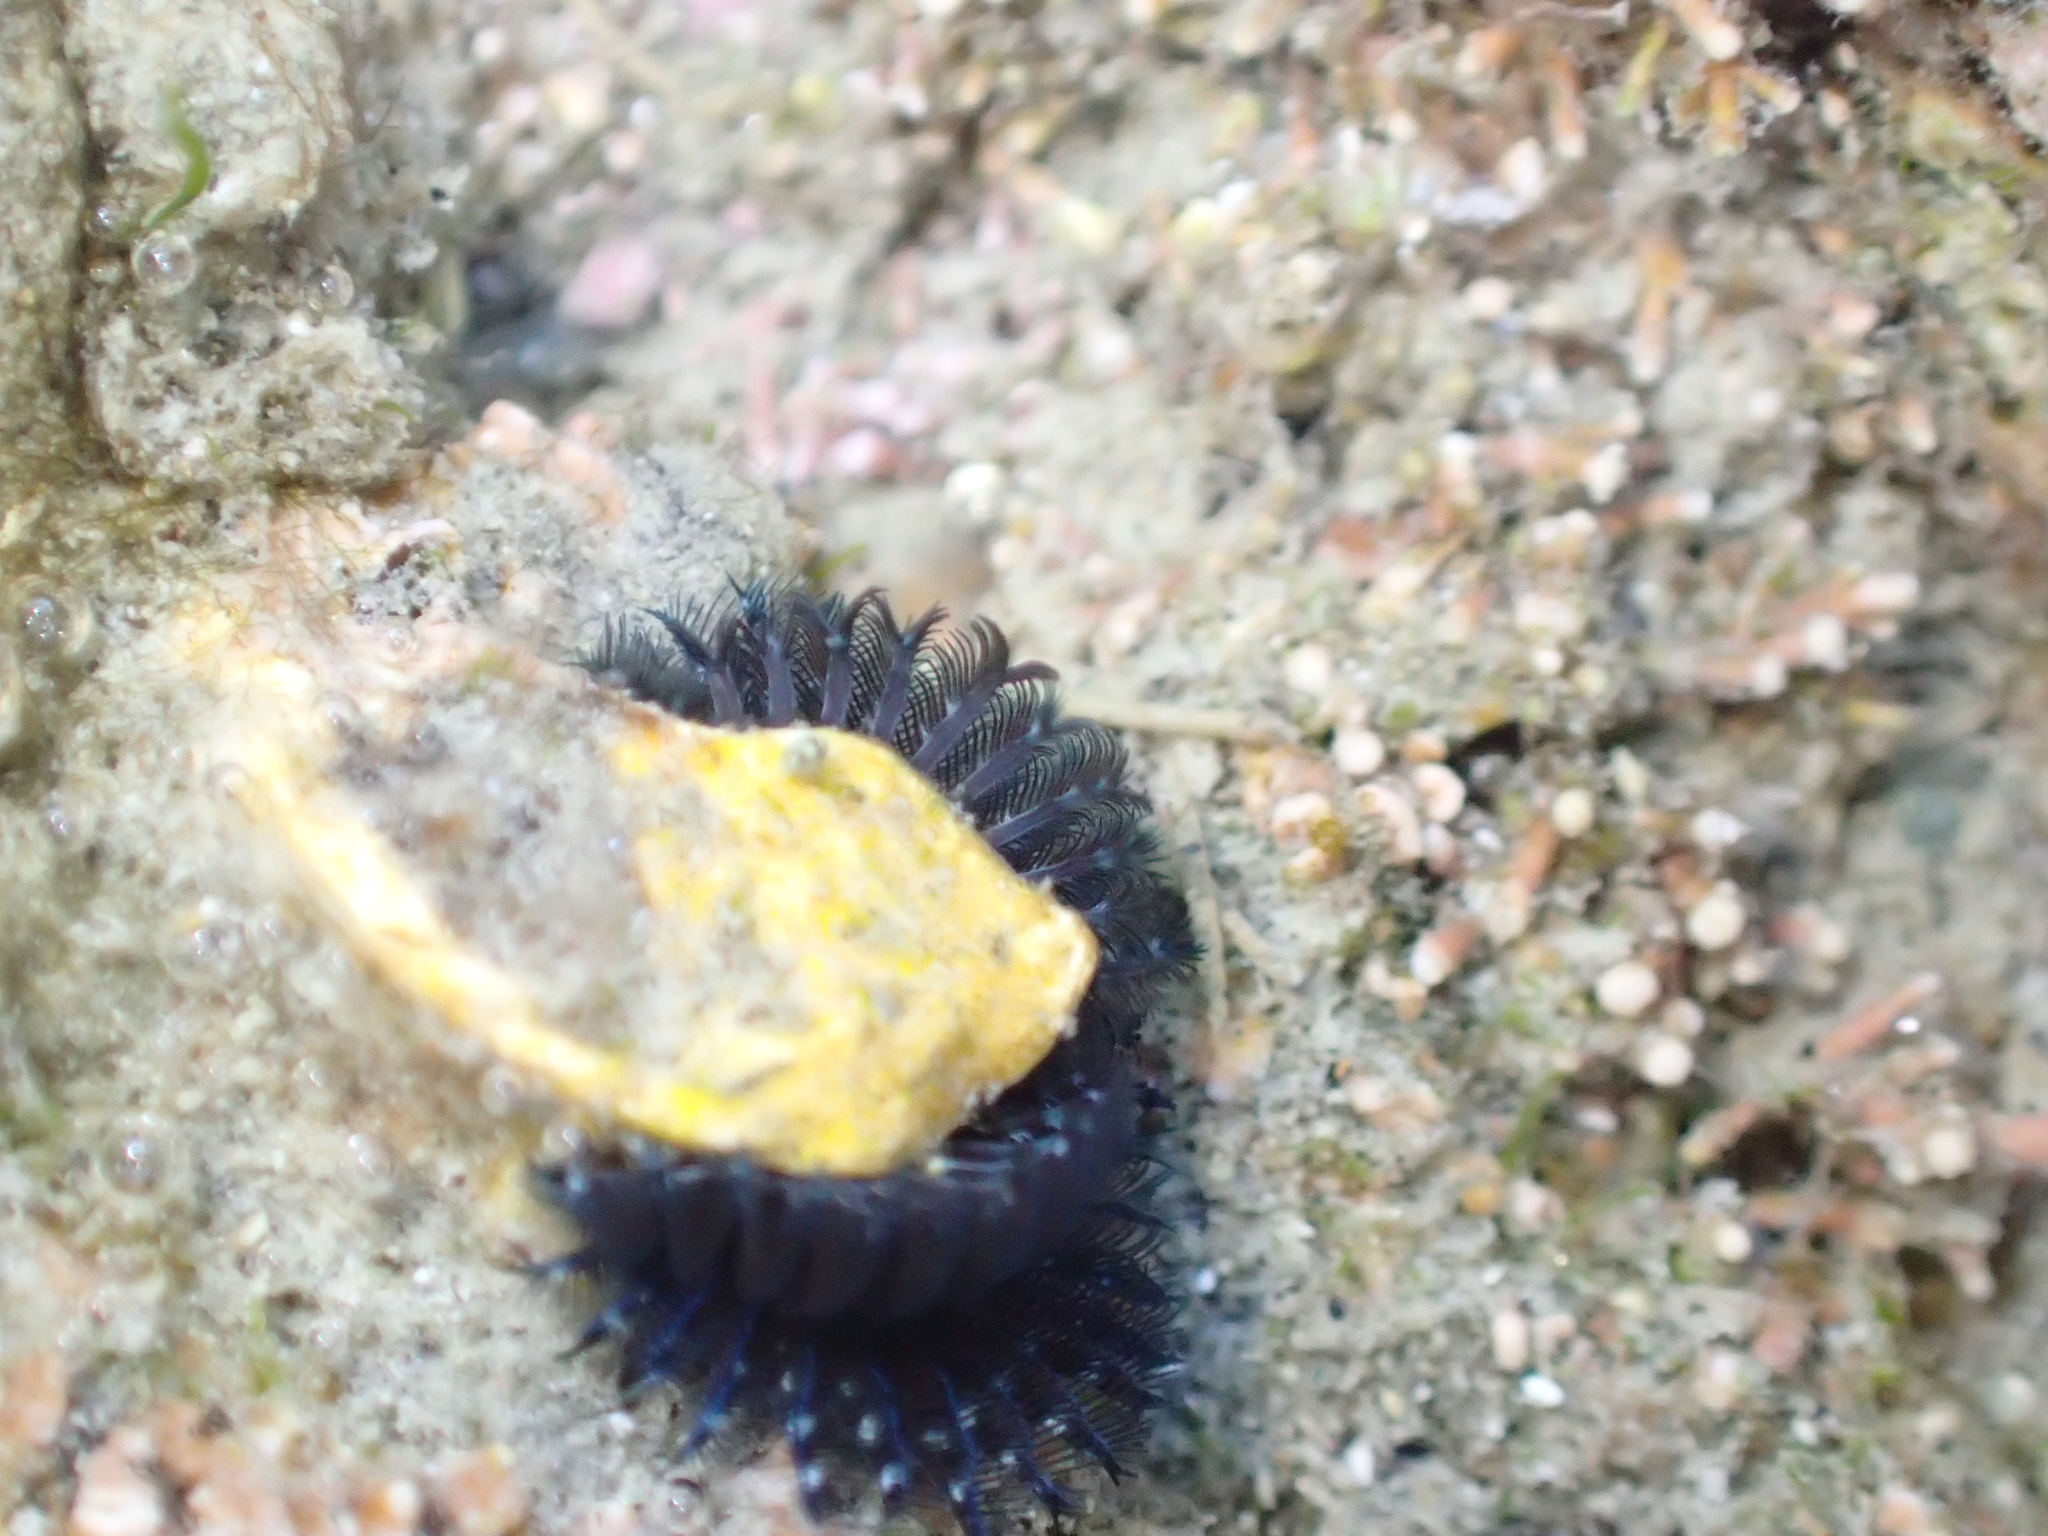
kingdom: Animalia
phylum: Annelida
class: Polychaeta
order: Sabellida
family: Serpulidae
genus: Spirobranchus
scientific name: Spirobranchus cariniferus
